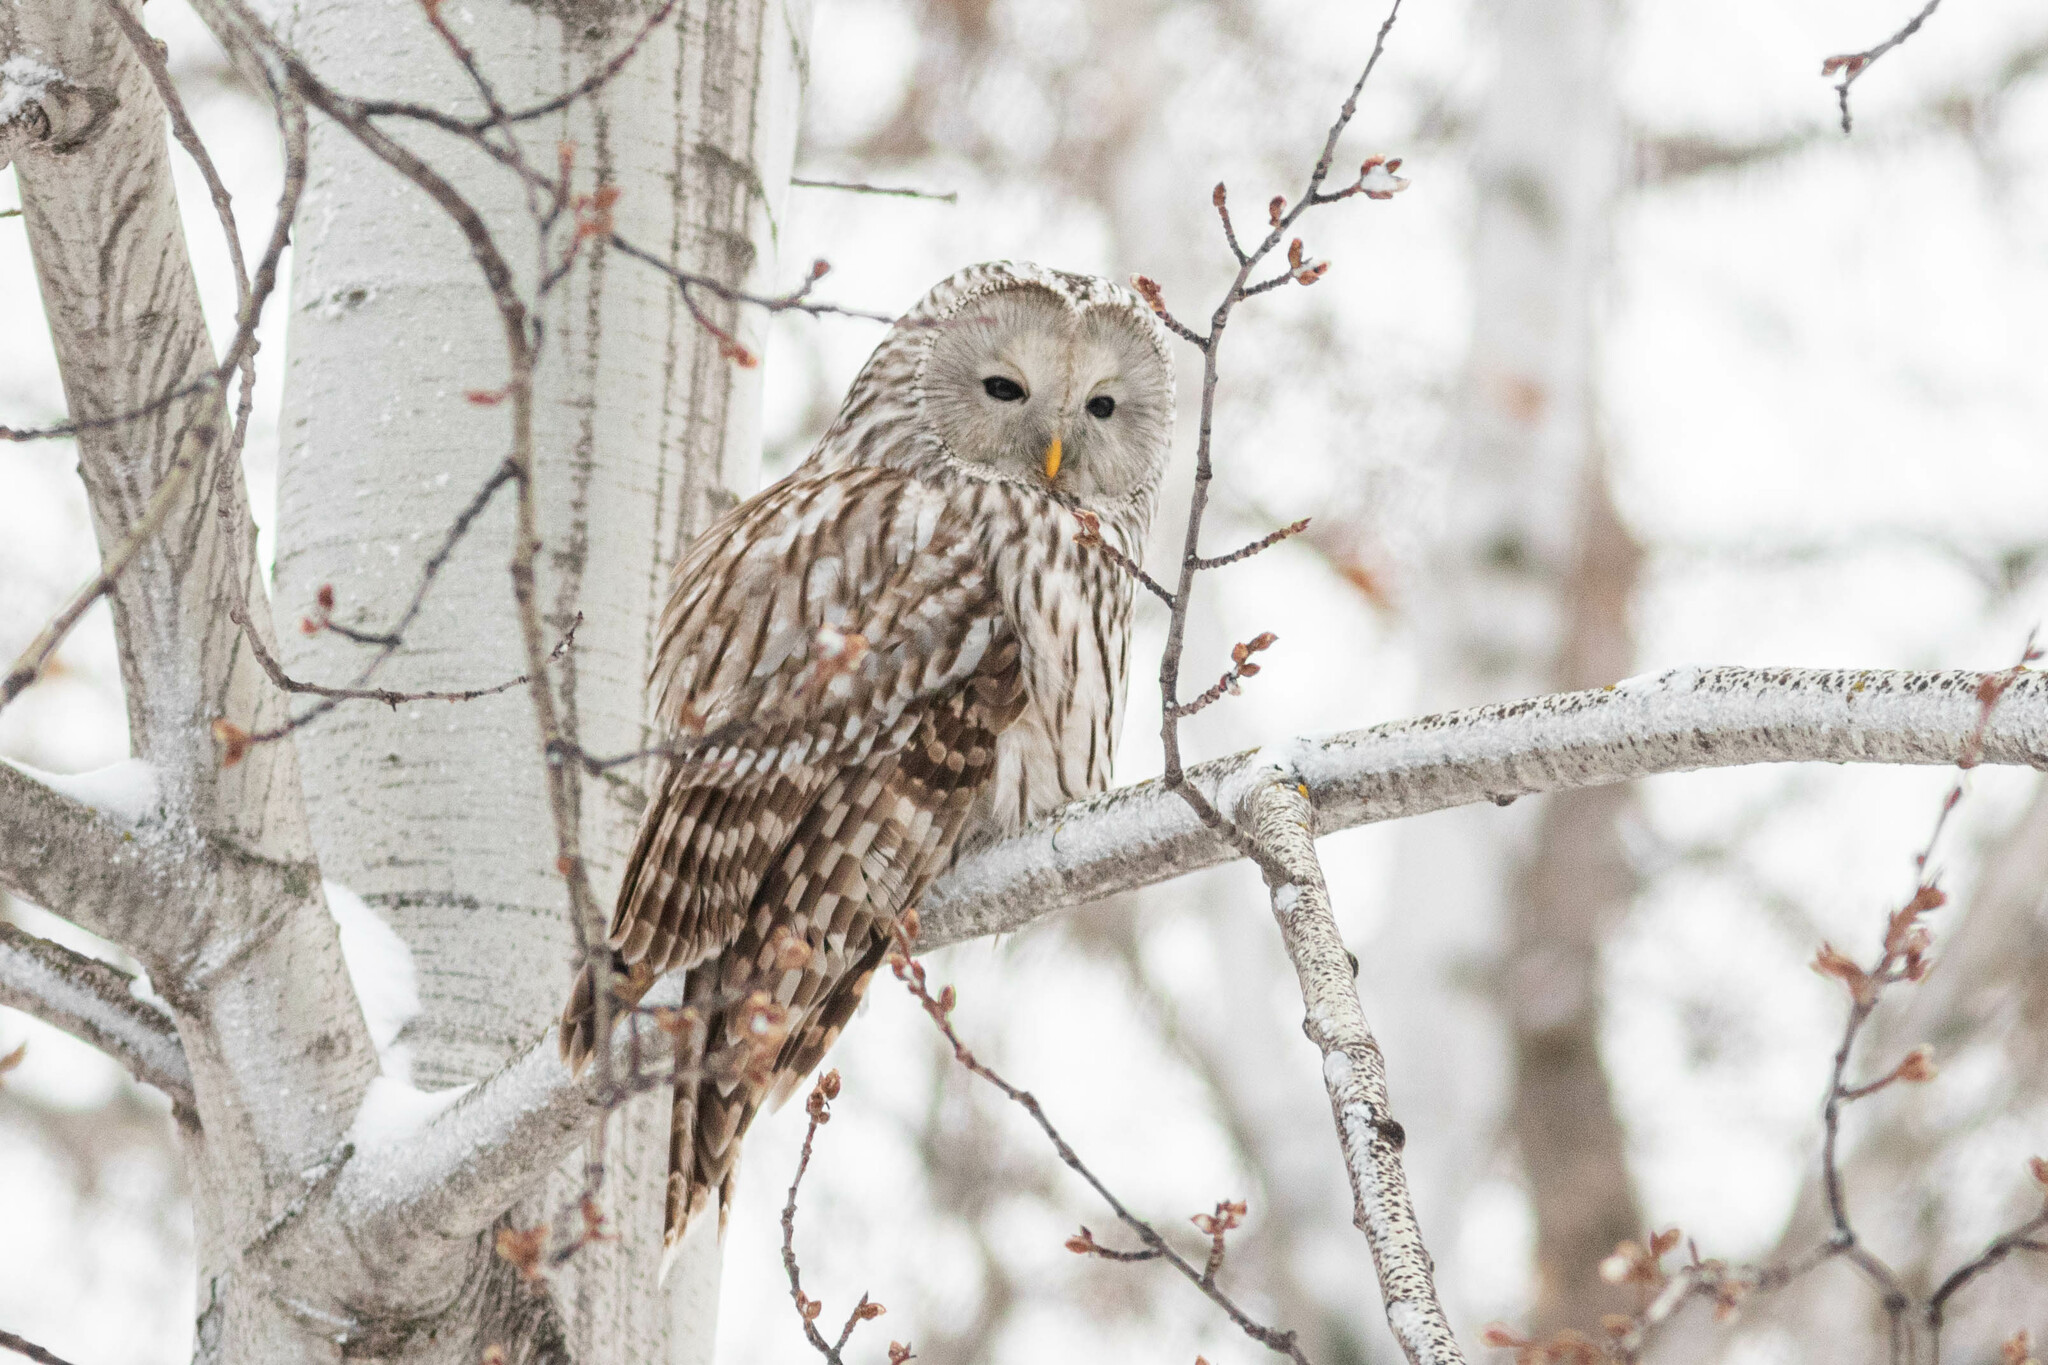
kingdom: Animalia
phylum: Chordata
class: Aves
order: Strigiformes
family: Strigidae
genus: Strix
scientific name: Strix uralensis
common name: Ural owl
